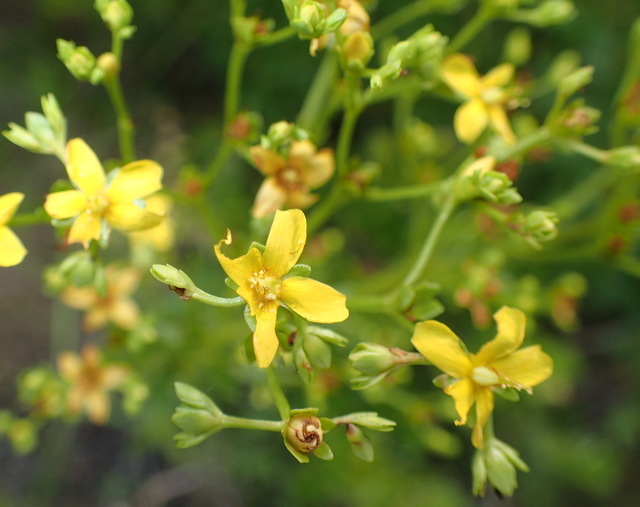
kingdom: Plantae
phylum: Tracheophyta
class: Magnoliopsida
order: Malpighiales
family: Hypericaceae
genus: Hypericum
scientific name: Hypericum cistifolium
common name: Round-pod st. john's-wort
